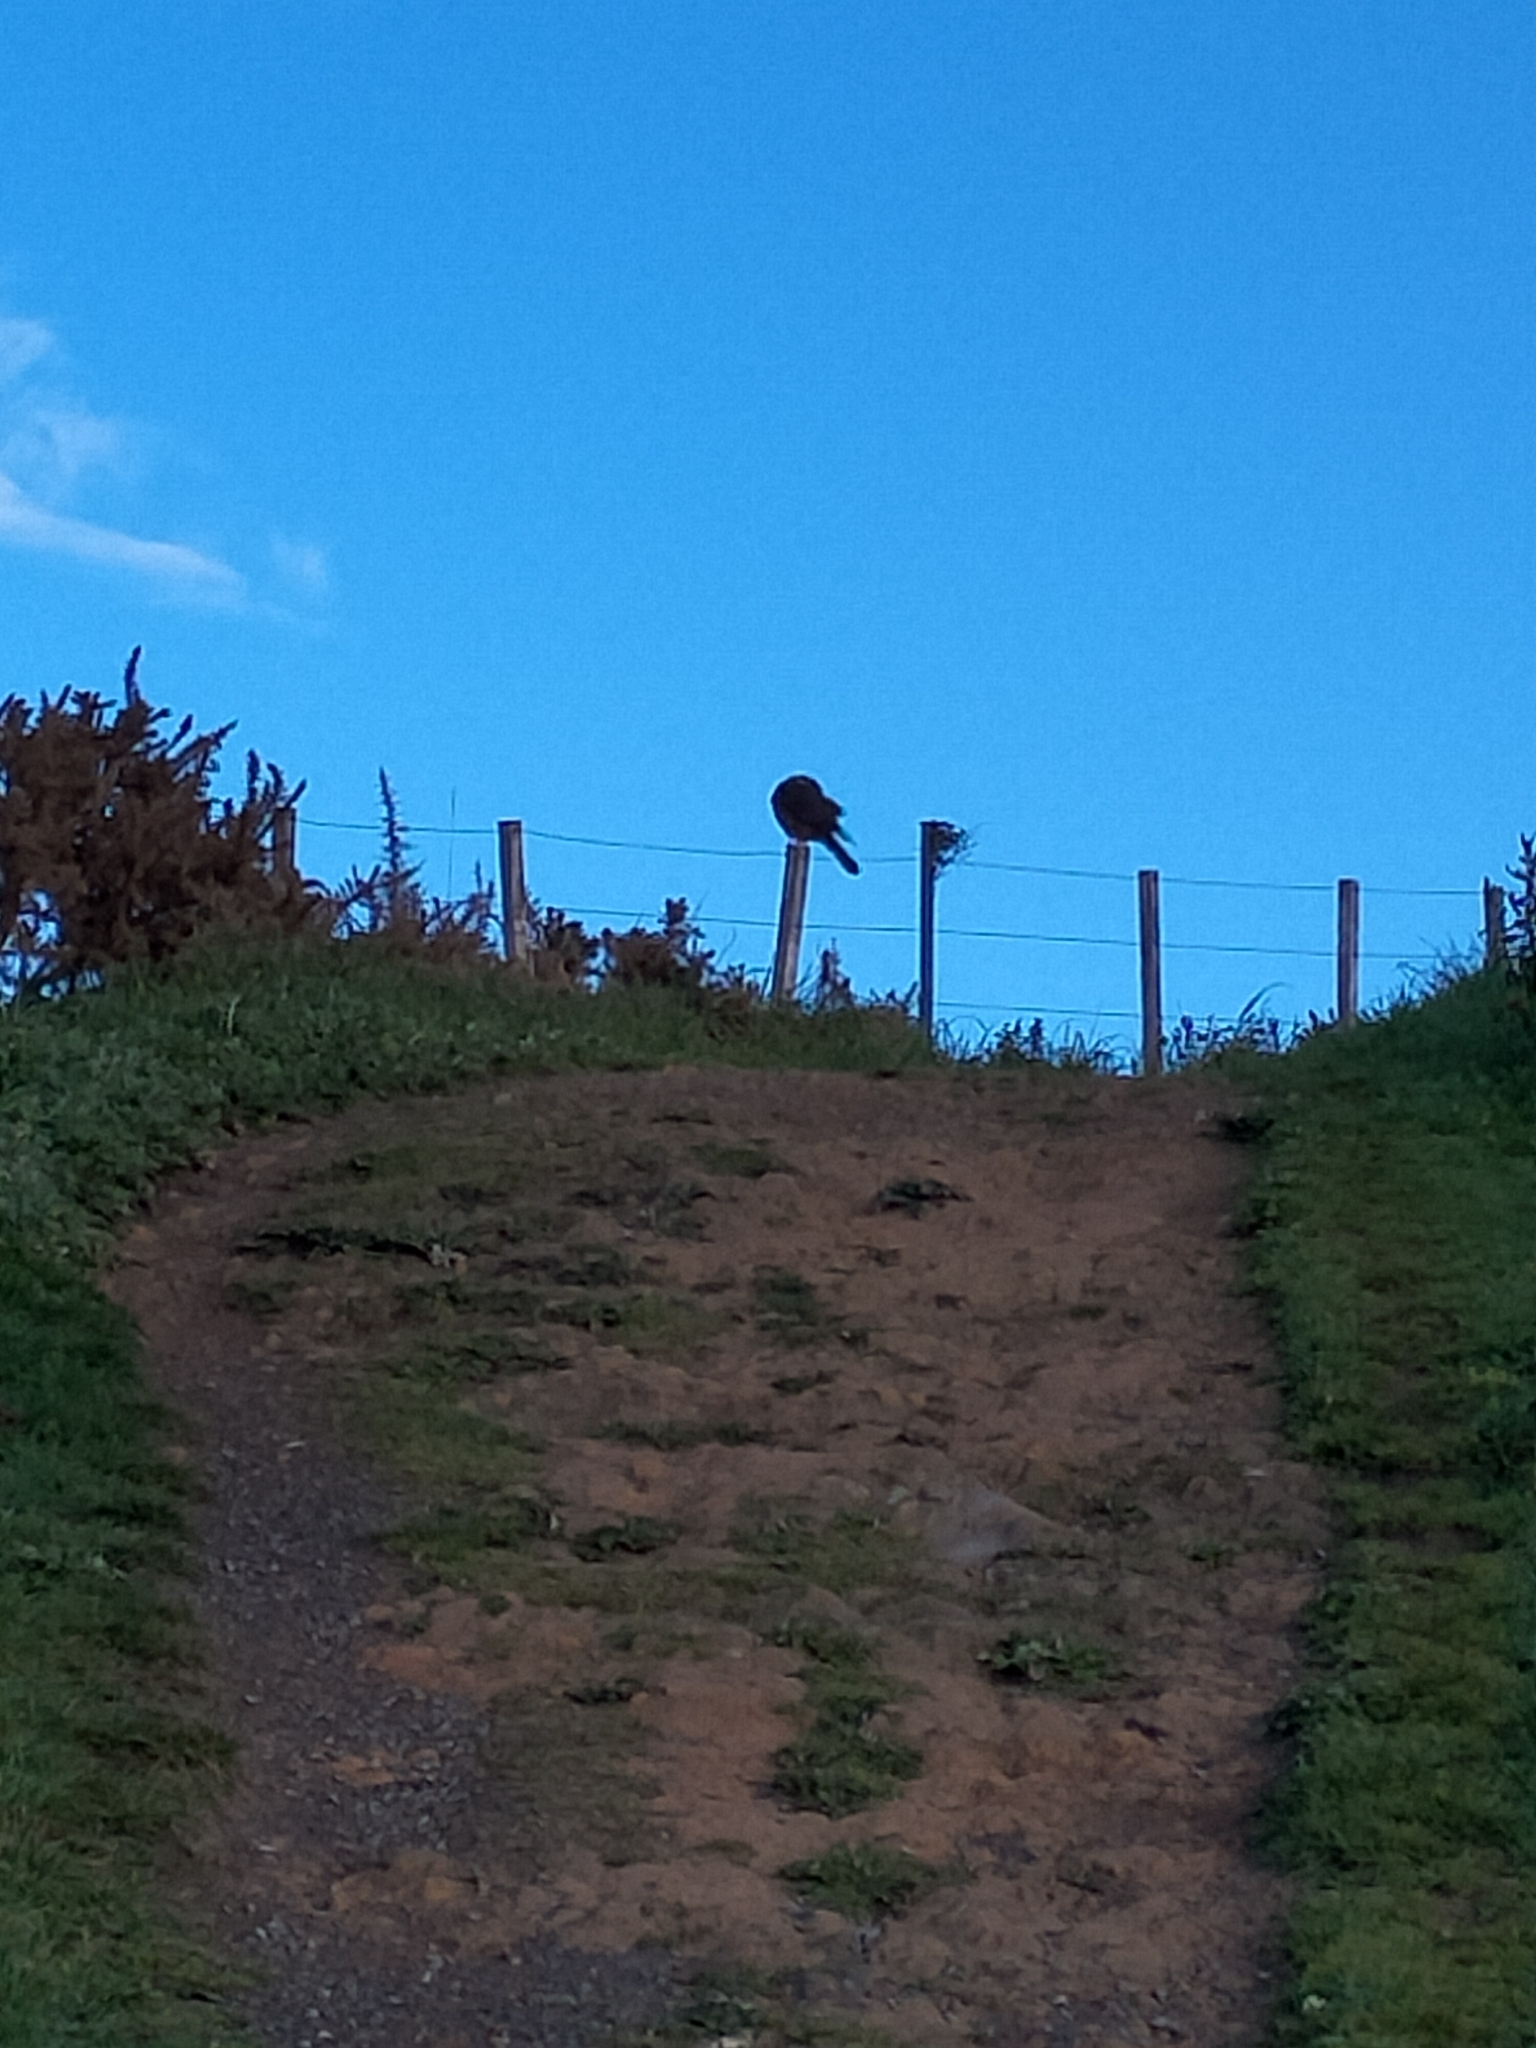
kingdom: Animalia
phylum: Chordata
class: Aves
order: Falconiformes
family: Falconidae
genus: Falco
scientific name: Falco novaeseelandiae
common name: New zealand falcon
